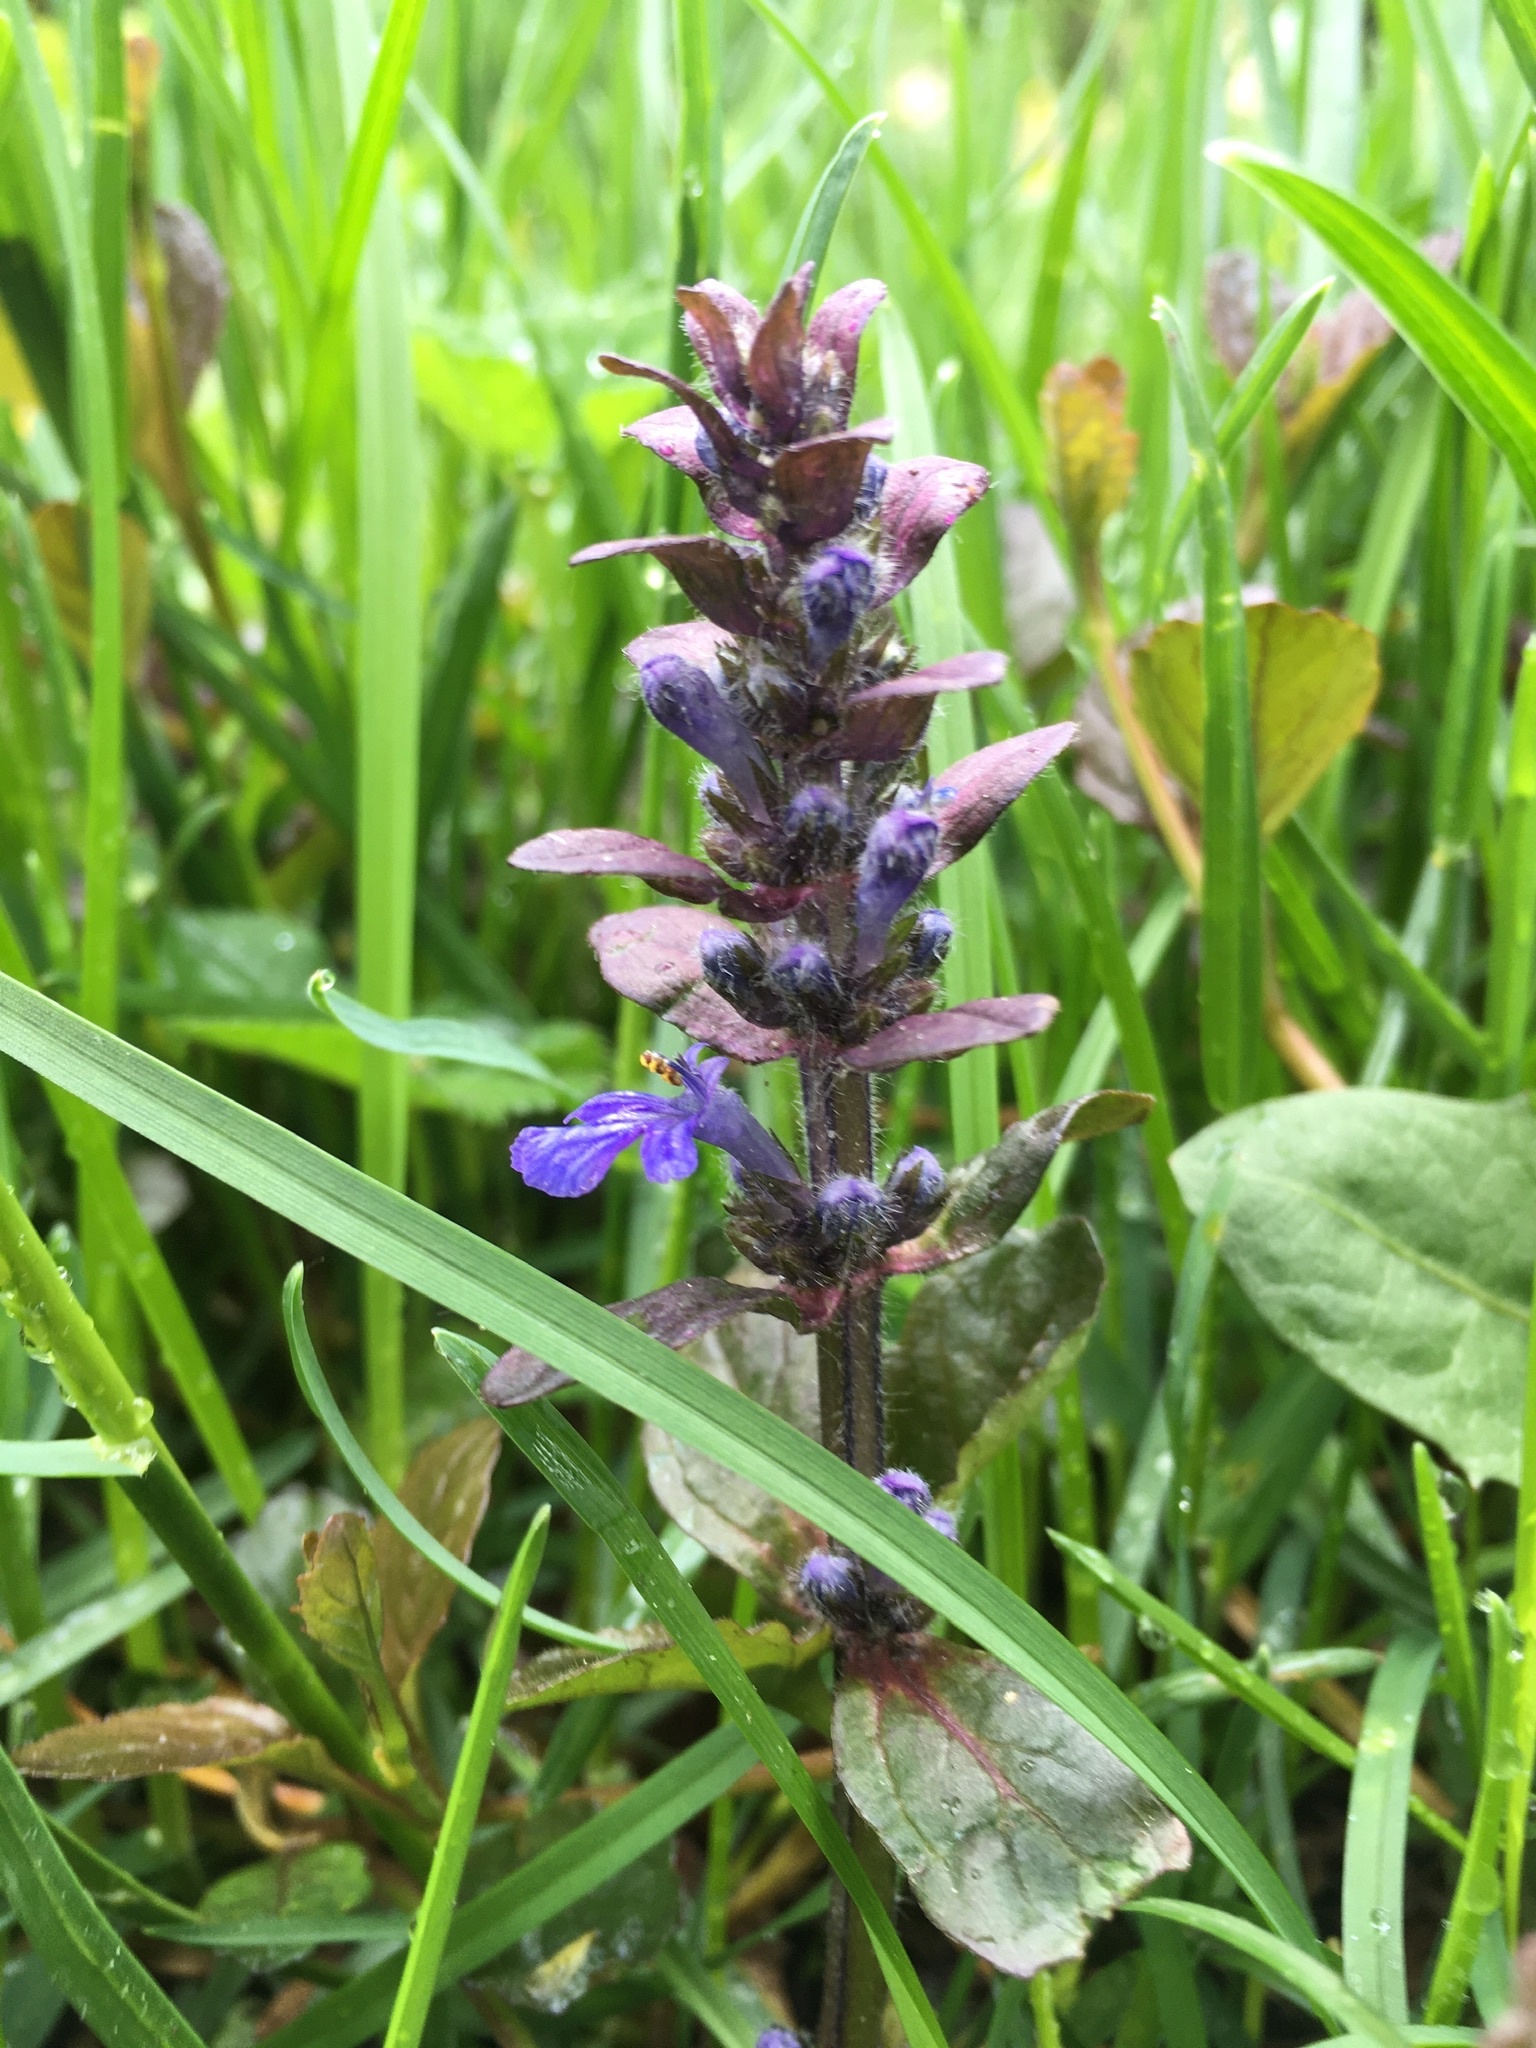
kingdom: Plantae
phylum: Tracheophyta
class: Magnoliopsida
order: Lamiales
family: Lamiaceae
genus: Ajuga
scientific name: Ajuga reptans
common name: Bugle
